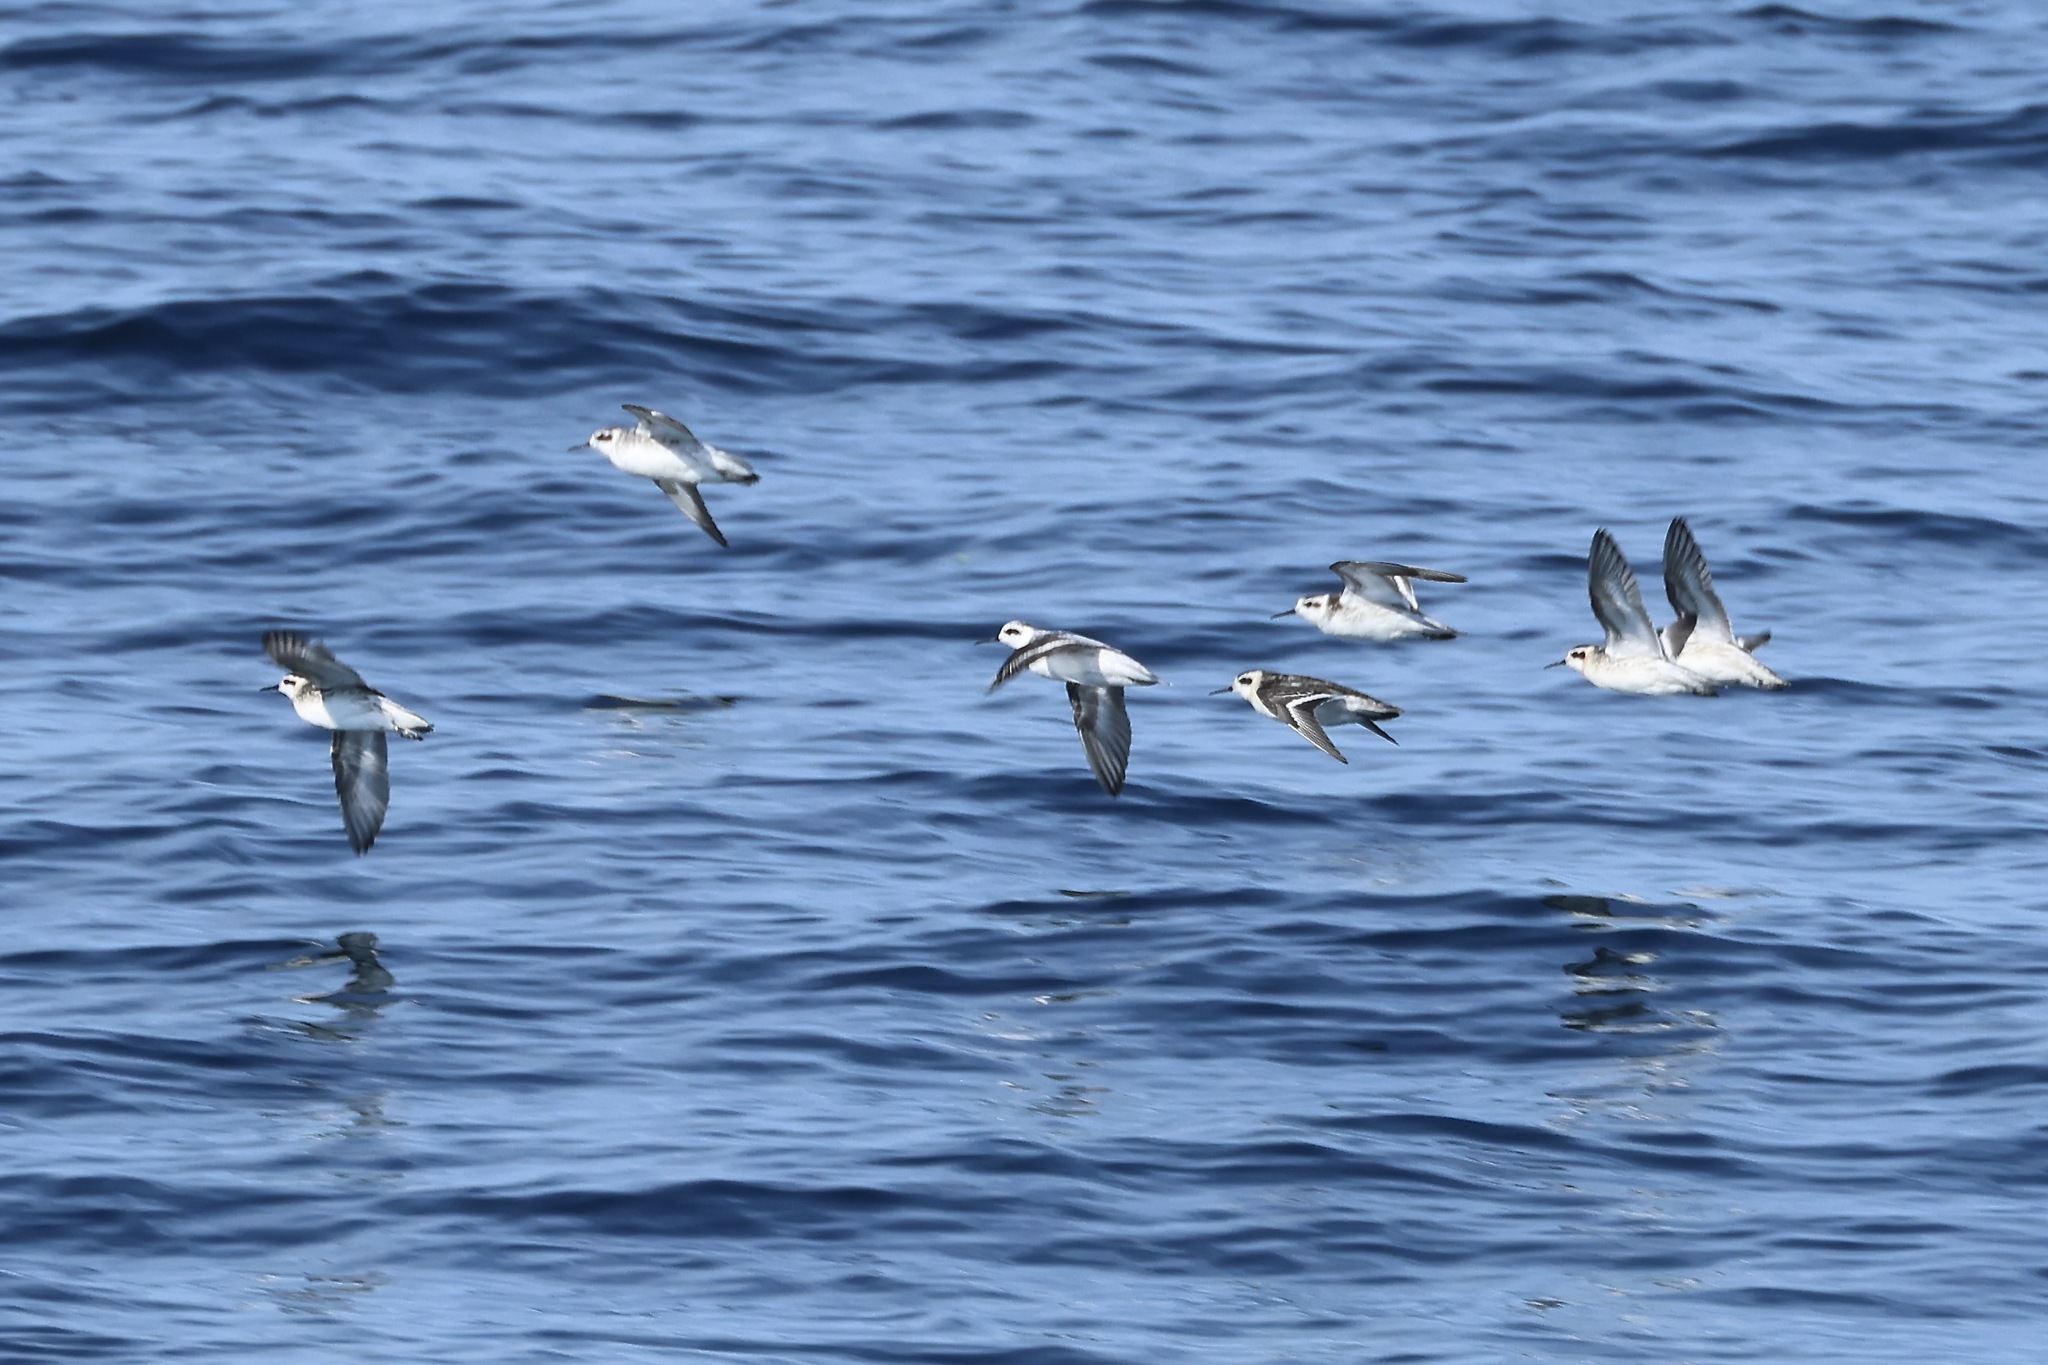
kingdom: Animalia
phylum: Chordata
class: Aves
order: Charadriiformes
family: Scolopacidae
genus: Phalaropus
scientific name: Phalaropus lobatus
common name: Red-necked phalarope
